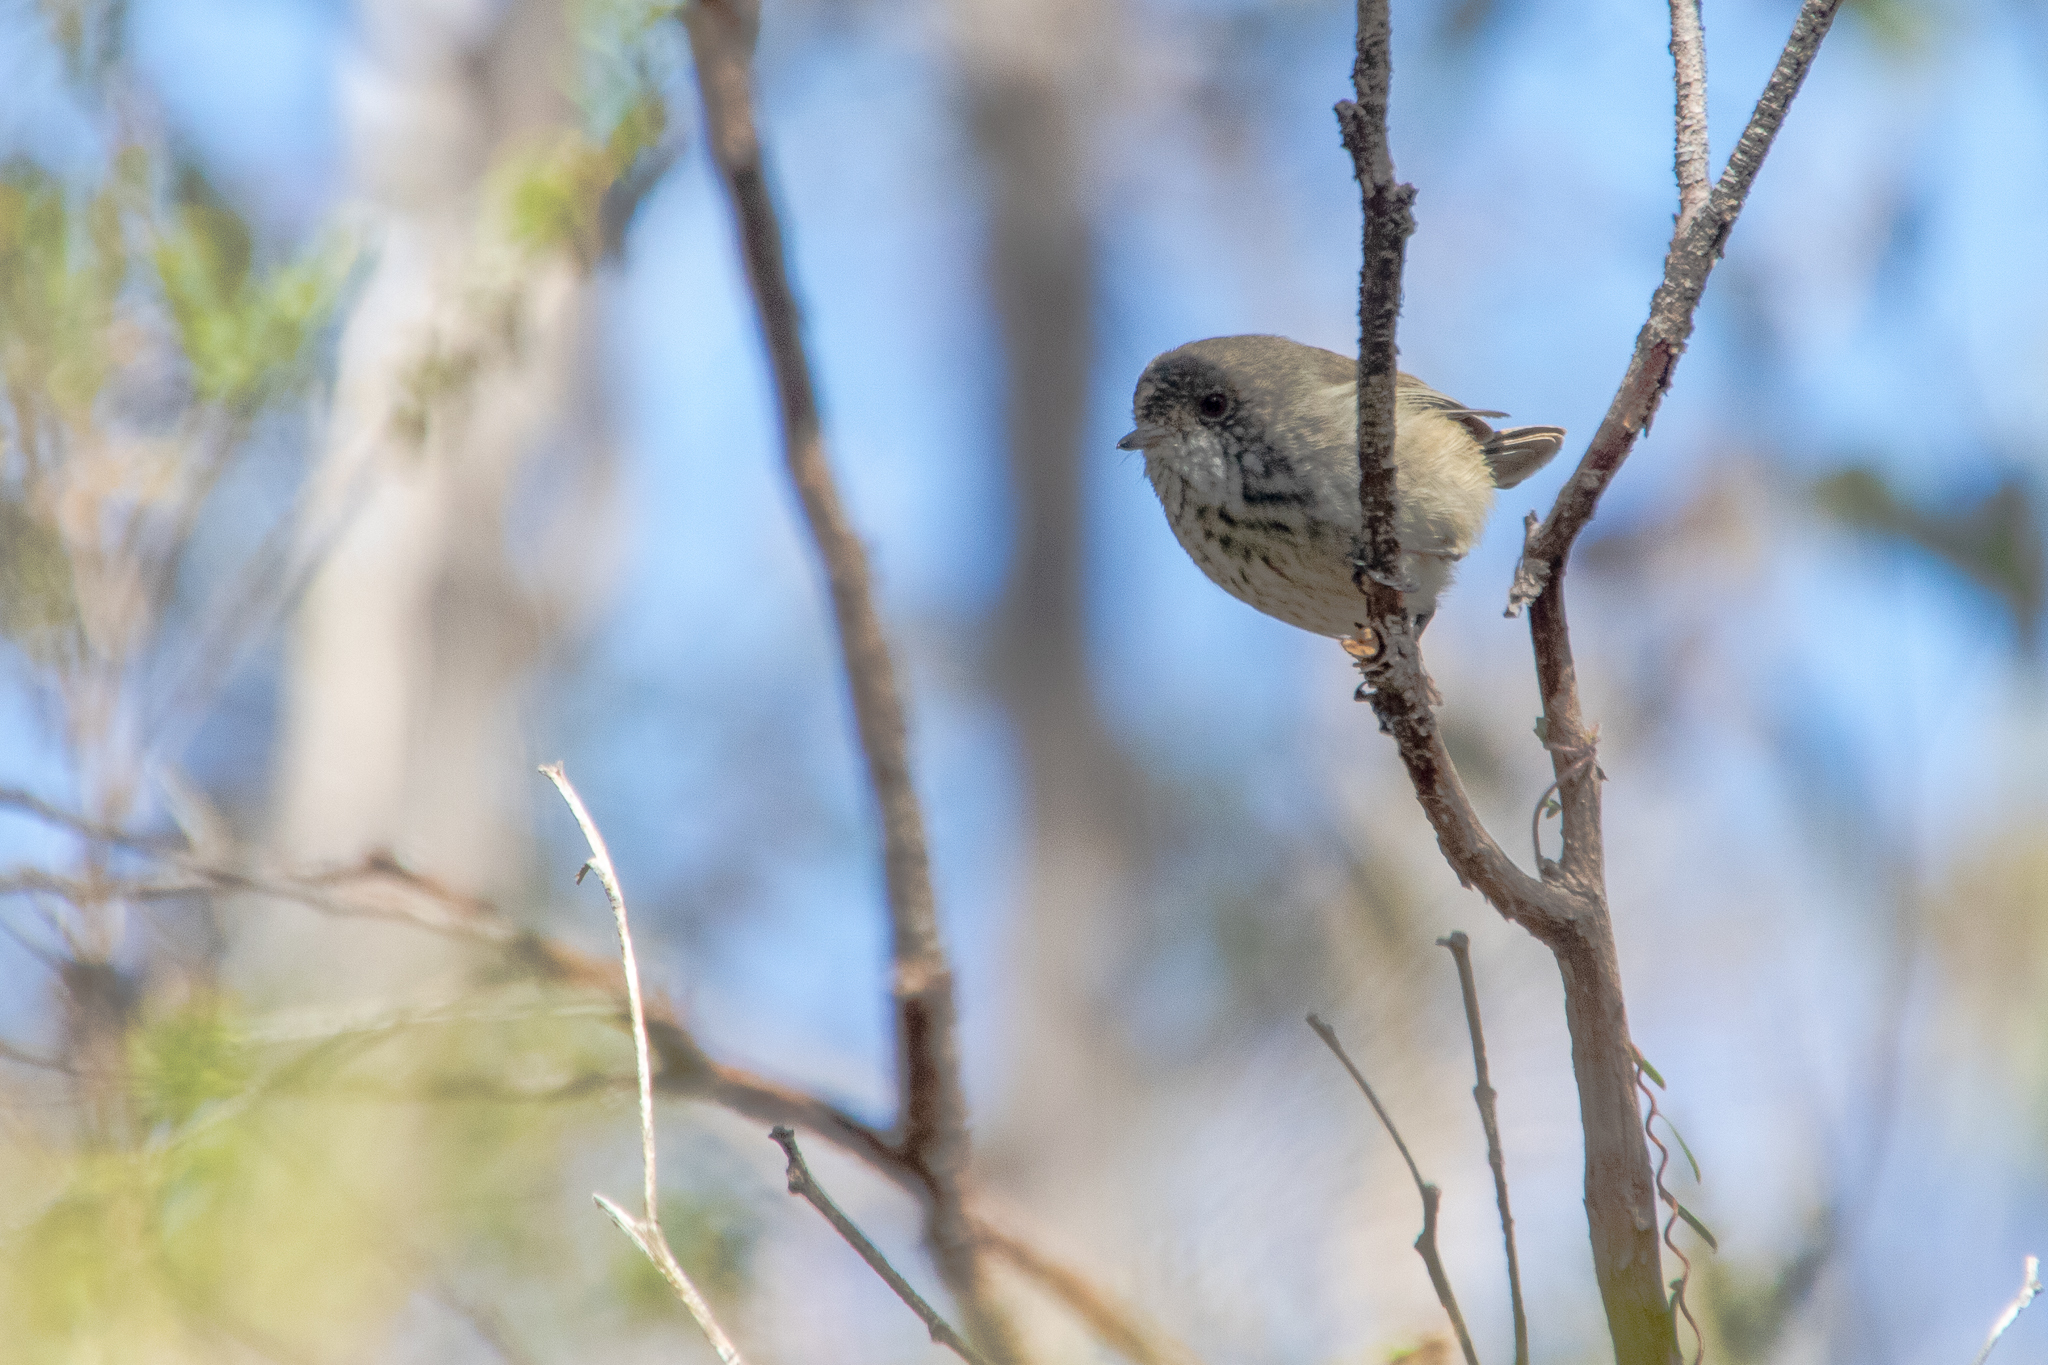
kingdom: Animalia
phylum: Chordata
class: Aves
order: Passeriformes
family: Acanthizidae
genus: Acanthiza
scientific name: Acanthiza apicalis
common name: Inland thornbill
